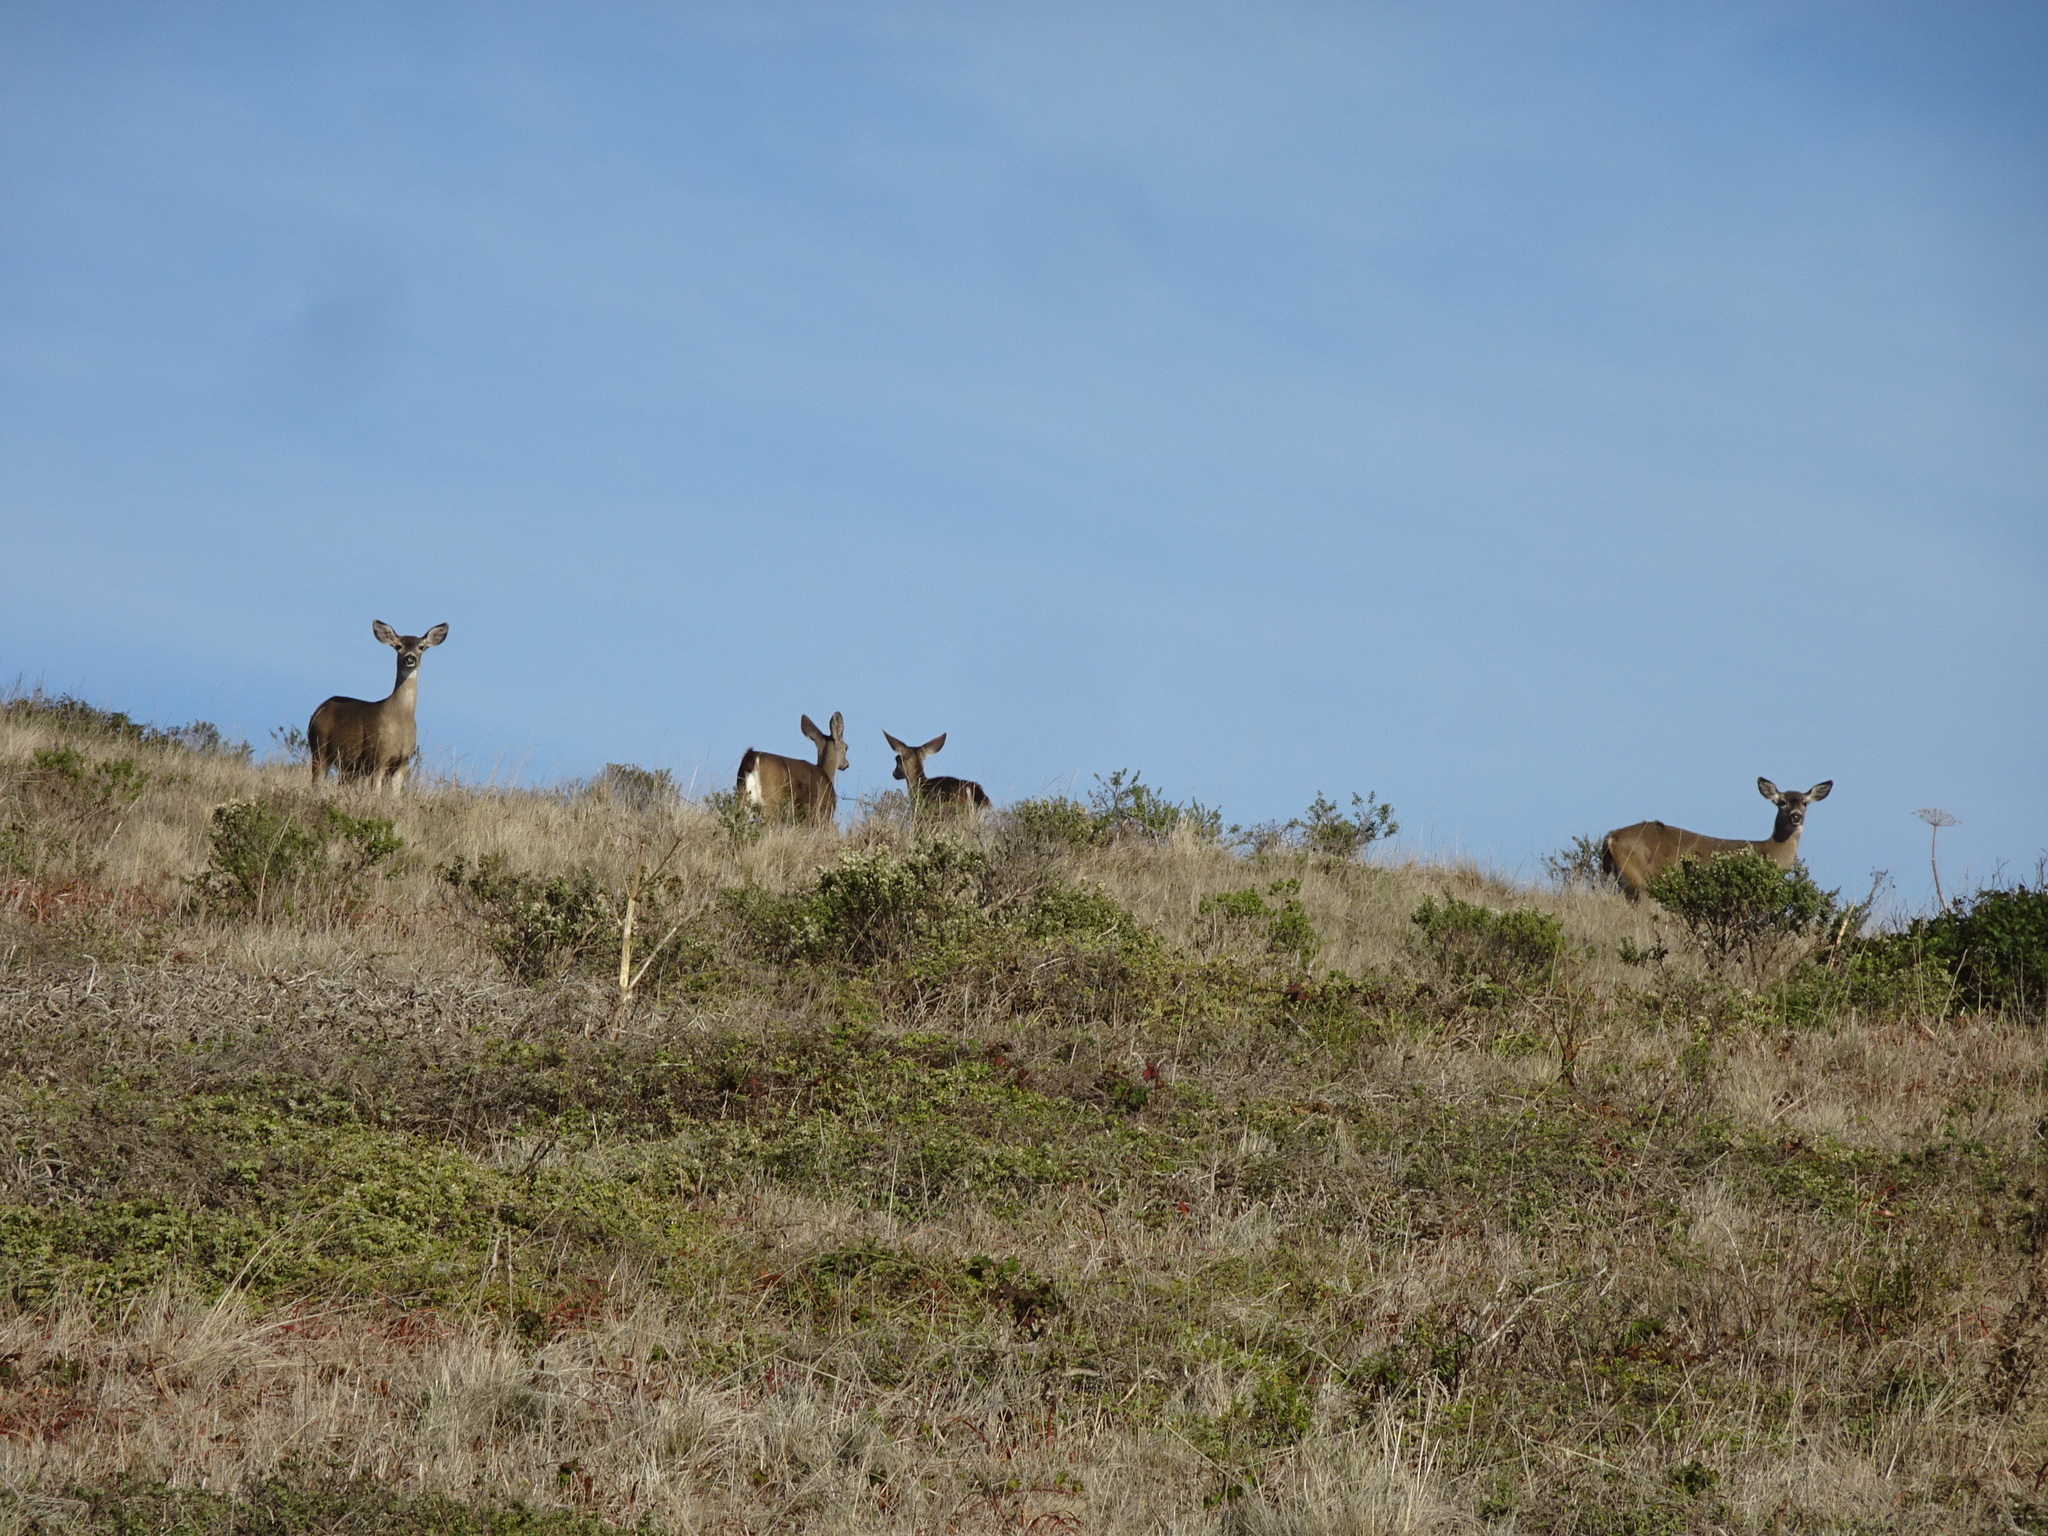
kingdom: Animalia
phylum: Chordata
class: Mammalia
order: Artiodactyla
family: Cervidae
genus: Odocoileus
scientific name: Odocoileus hemionus
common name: Mule deer
